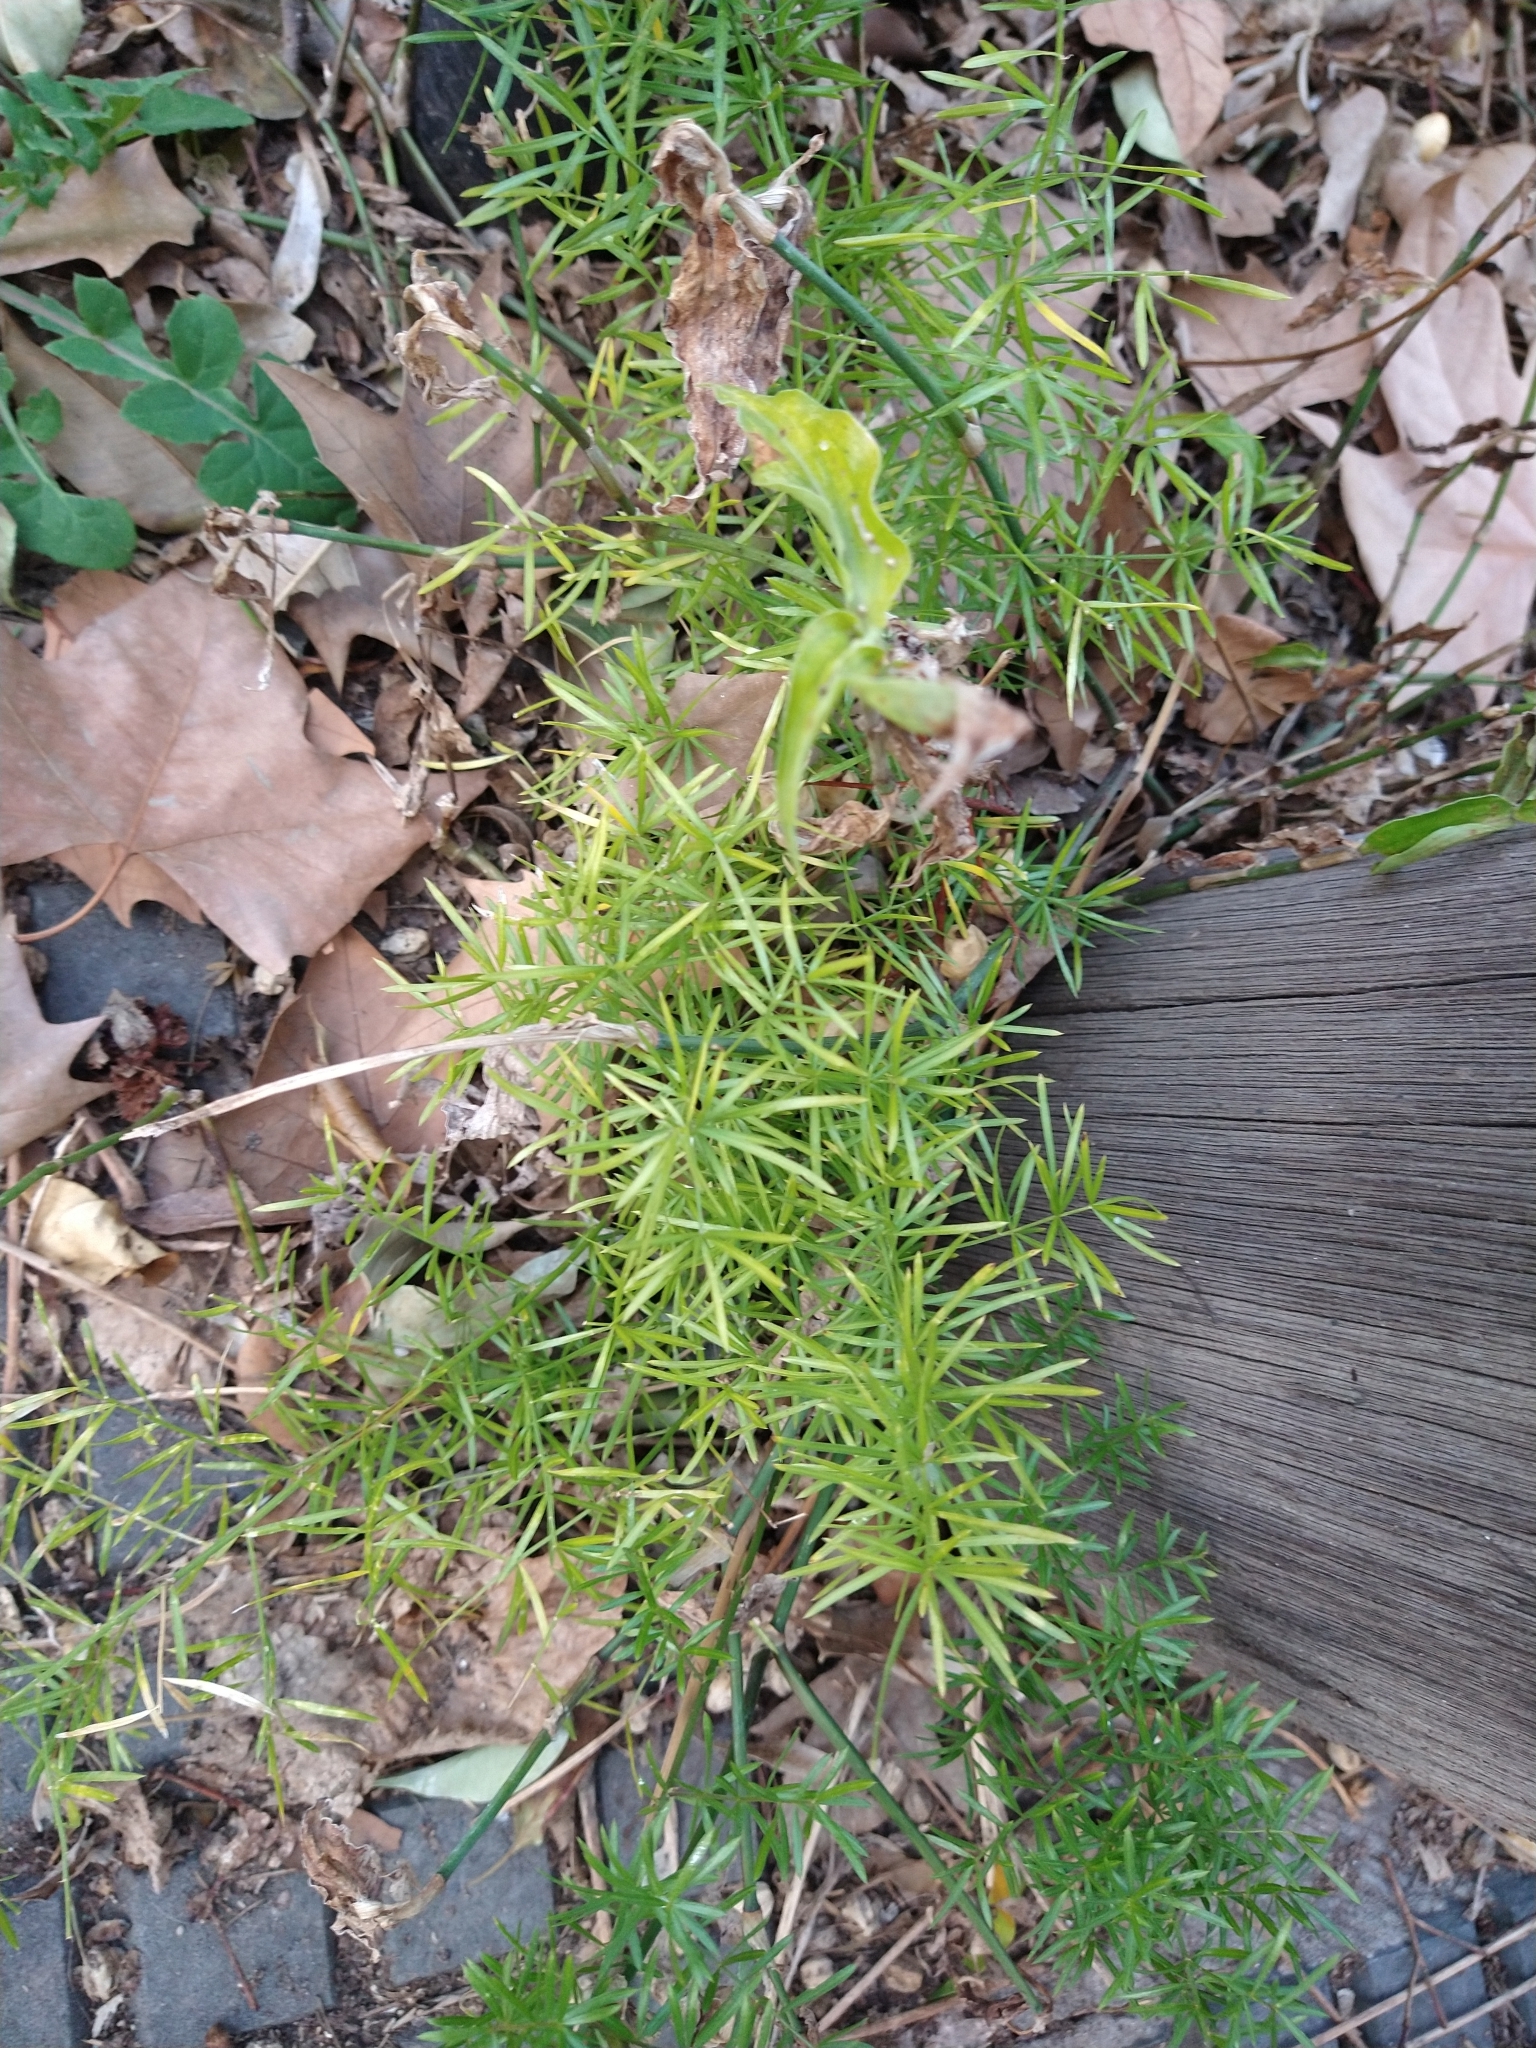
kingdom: Plantae
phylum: Tracheophyta
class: Liliopsida
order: Asparagales
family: Asparagaceae
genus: Asparagus
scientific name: Asparagus aethiopicus
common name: Sprenger's asparagus fern
